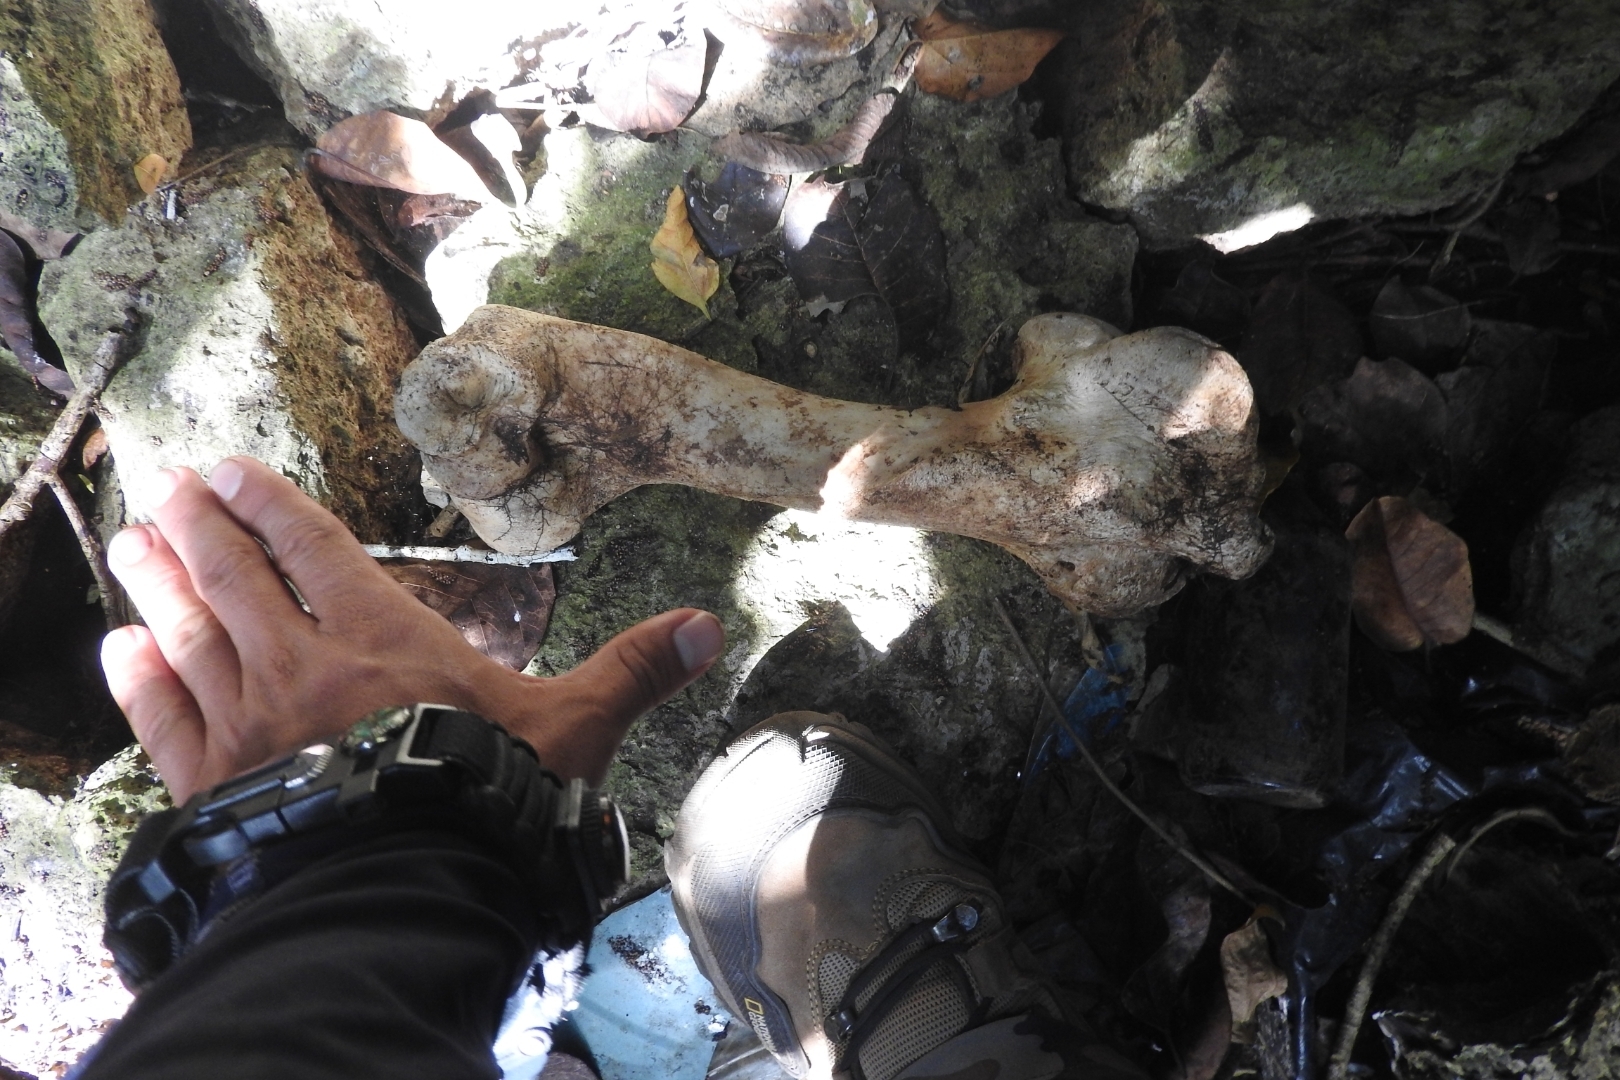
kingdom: Animalia
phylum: Chordata
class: Mammalia
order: Artiodactyla
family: Bovidae
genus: Bos
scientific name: Bos taurus
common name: Domesticated cattle
